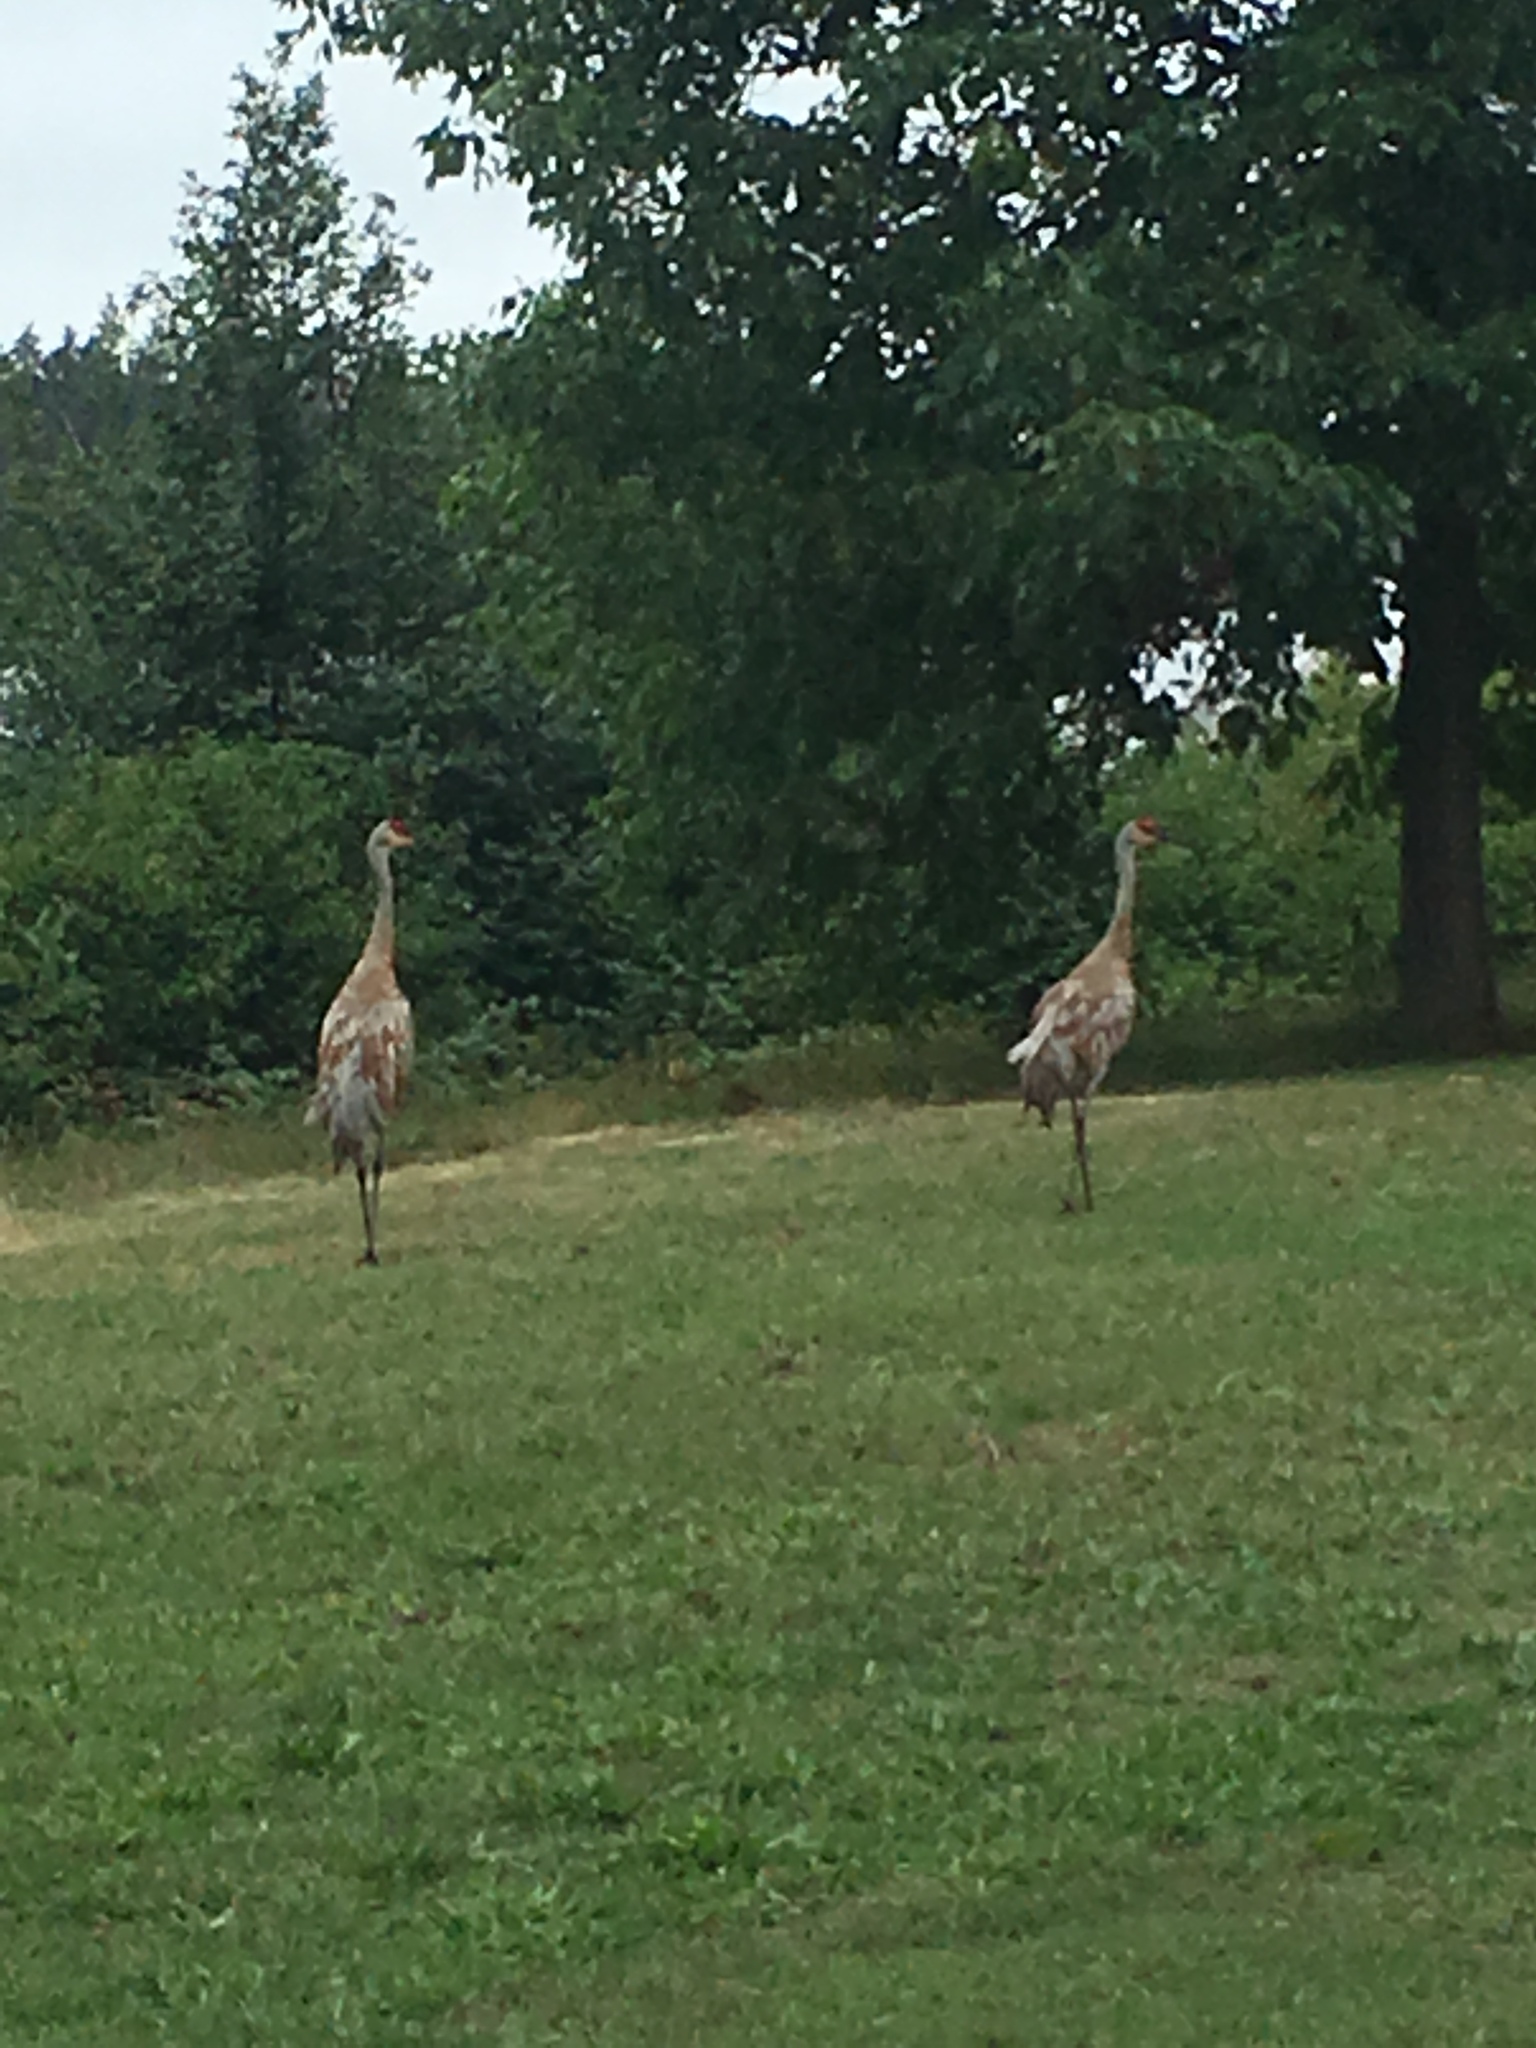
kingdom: Animalia
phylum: Chordata
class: Aves
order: Gruiformes
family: Gruidae
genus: Grus
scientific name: Grus canadensis
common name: Sandhill crane
